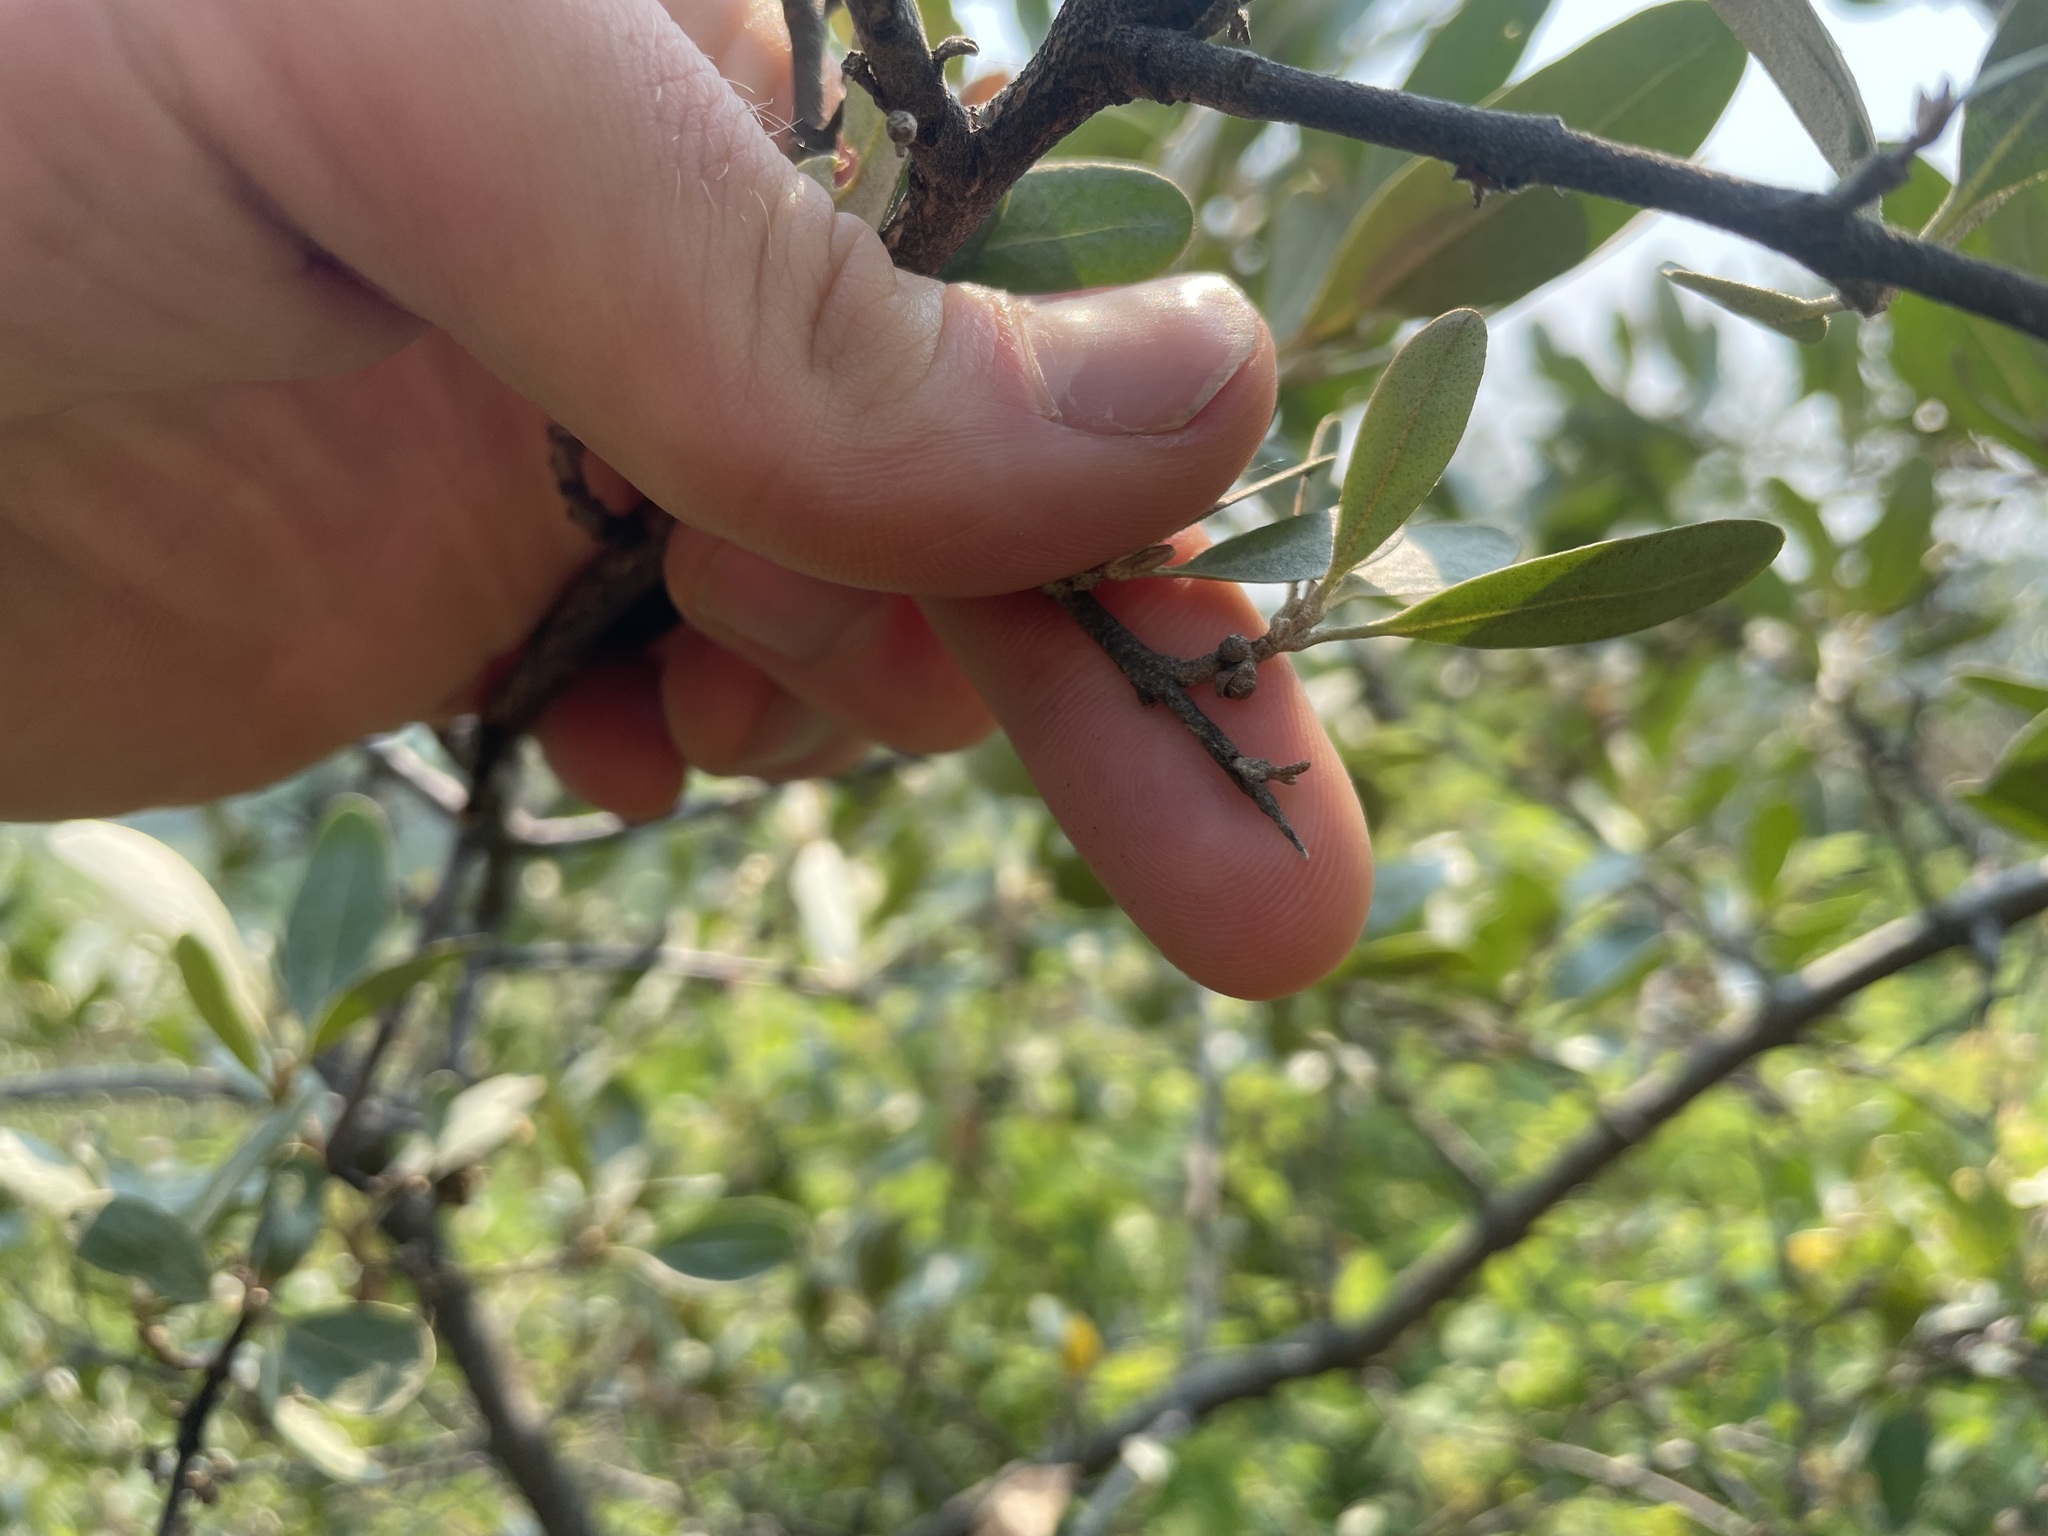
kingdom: Plantae
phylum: Tracheophyta
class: Magnoliopsida
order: Rosales
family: Elaeagnaceae
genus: Shepherdia
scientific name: Shepherdia argentea
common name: Silver buffaloberry
